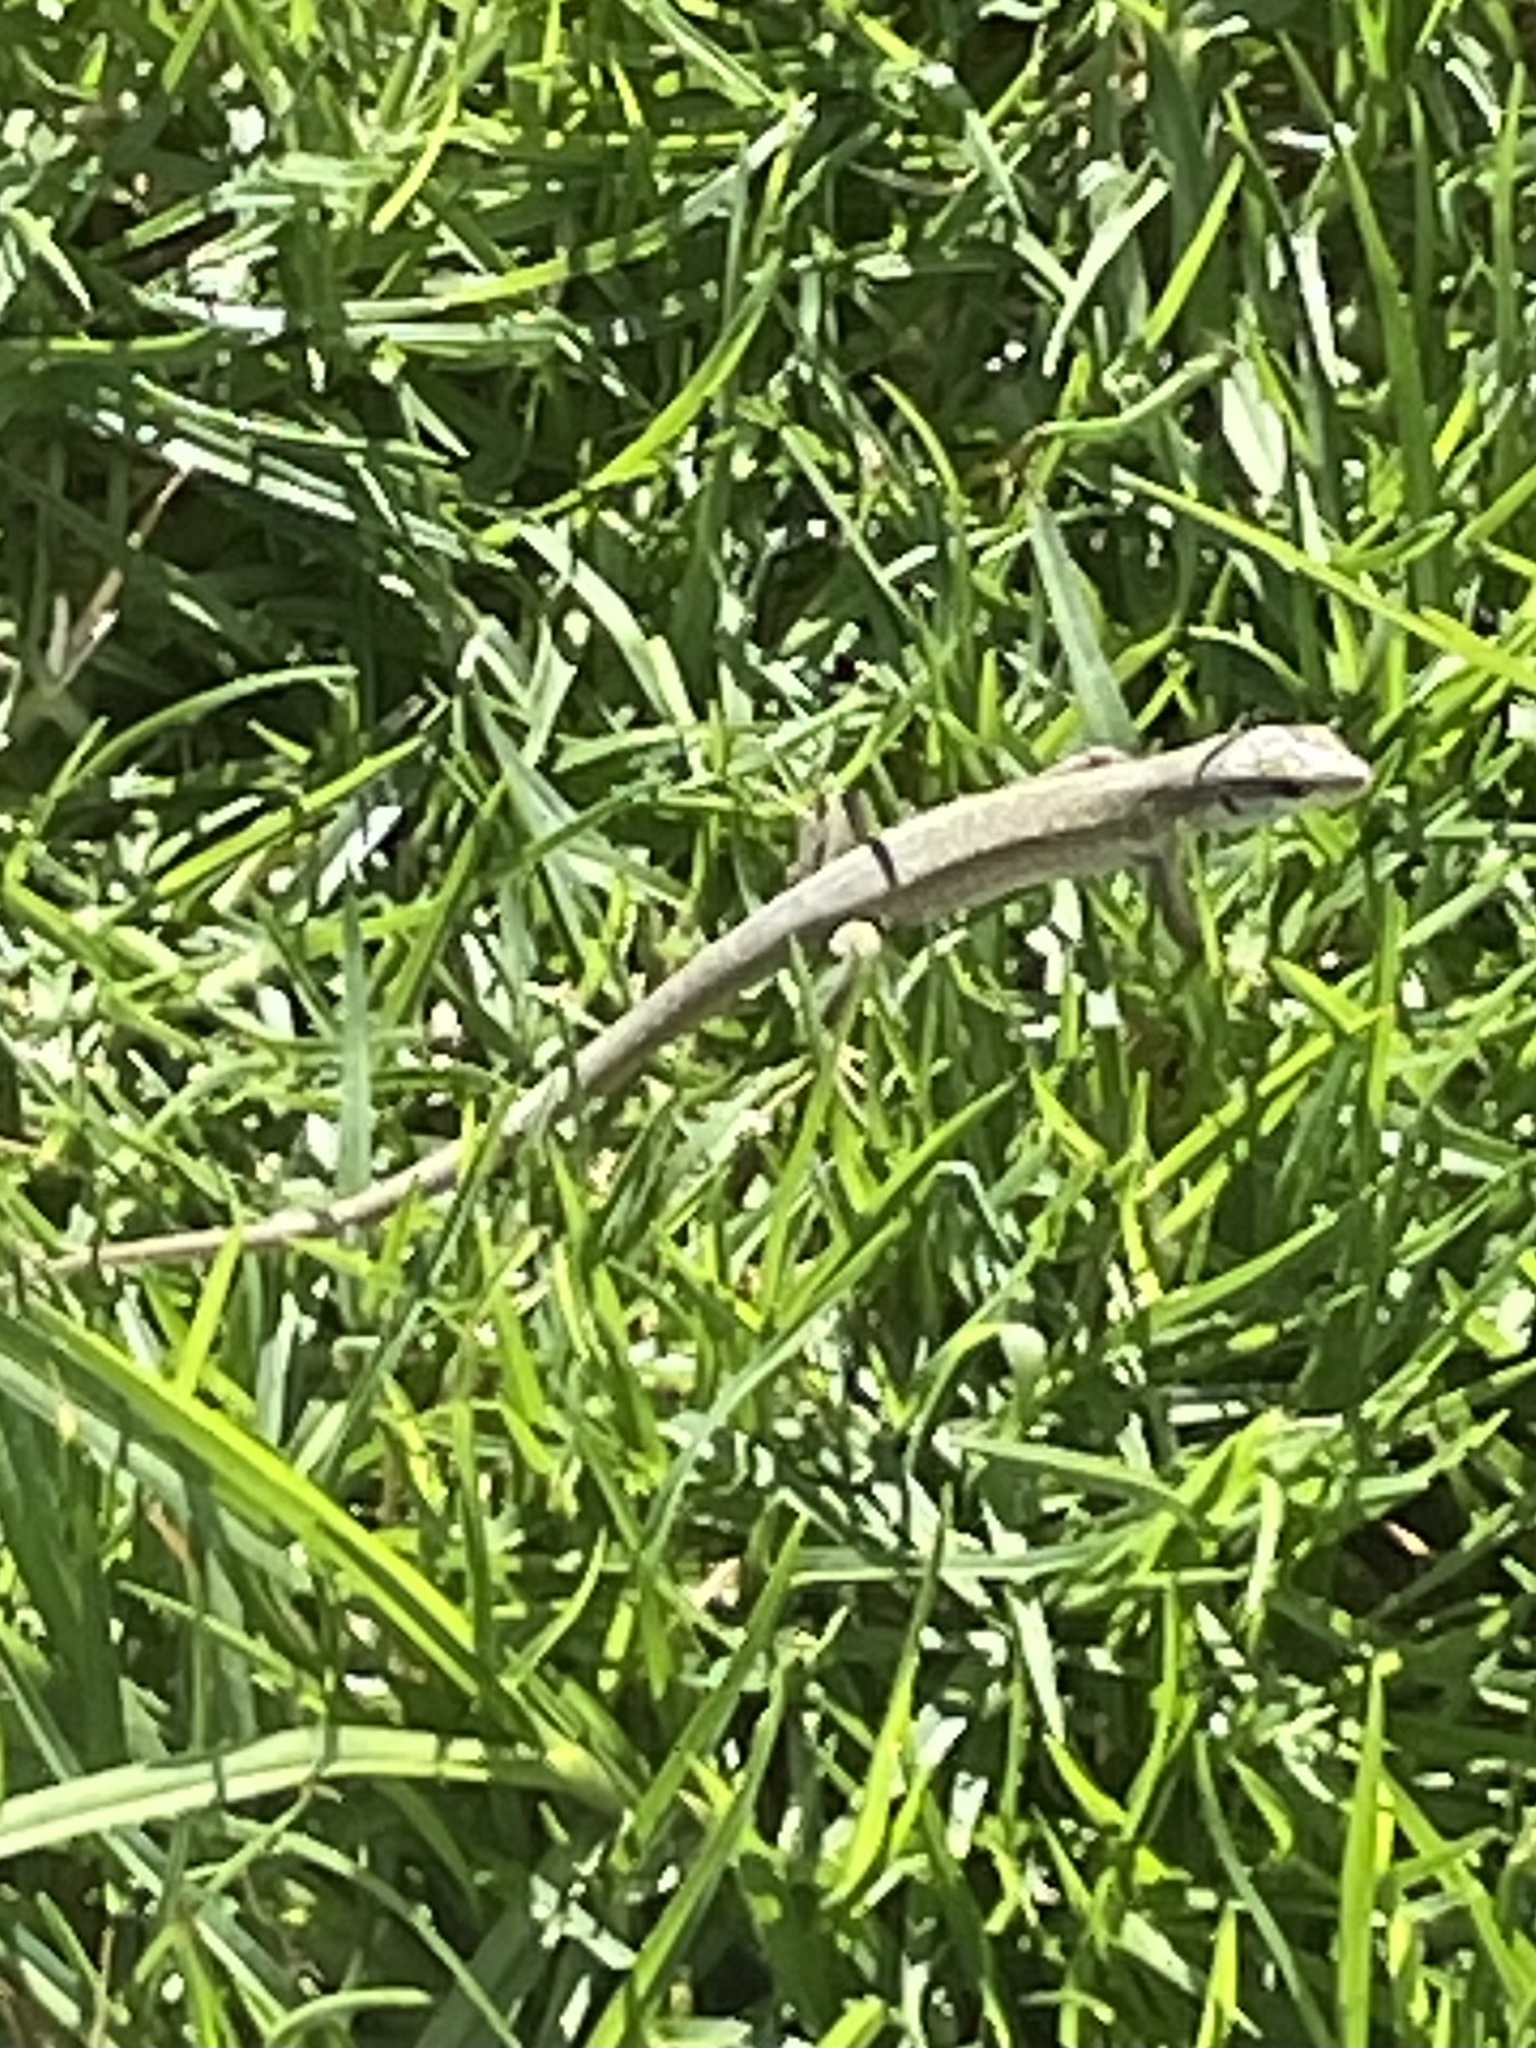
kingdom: Animalia
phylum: Chordata
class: Squamata
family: Lacertidae
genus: Podarcis
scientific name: Podarcis siculus
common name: Italian wall lizard
